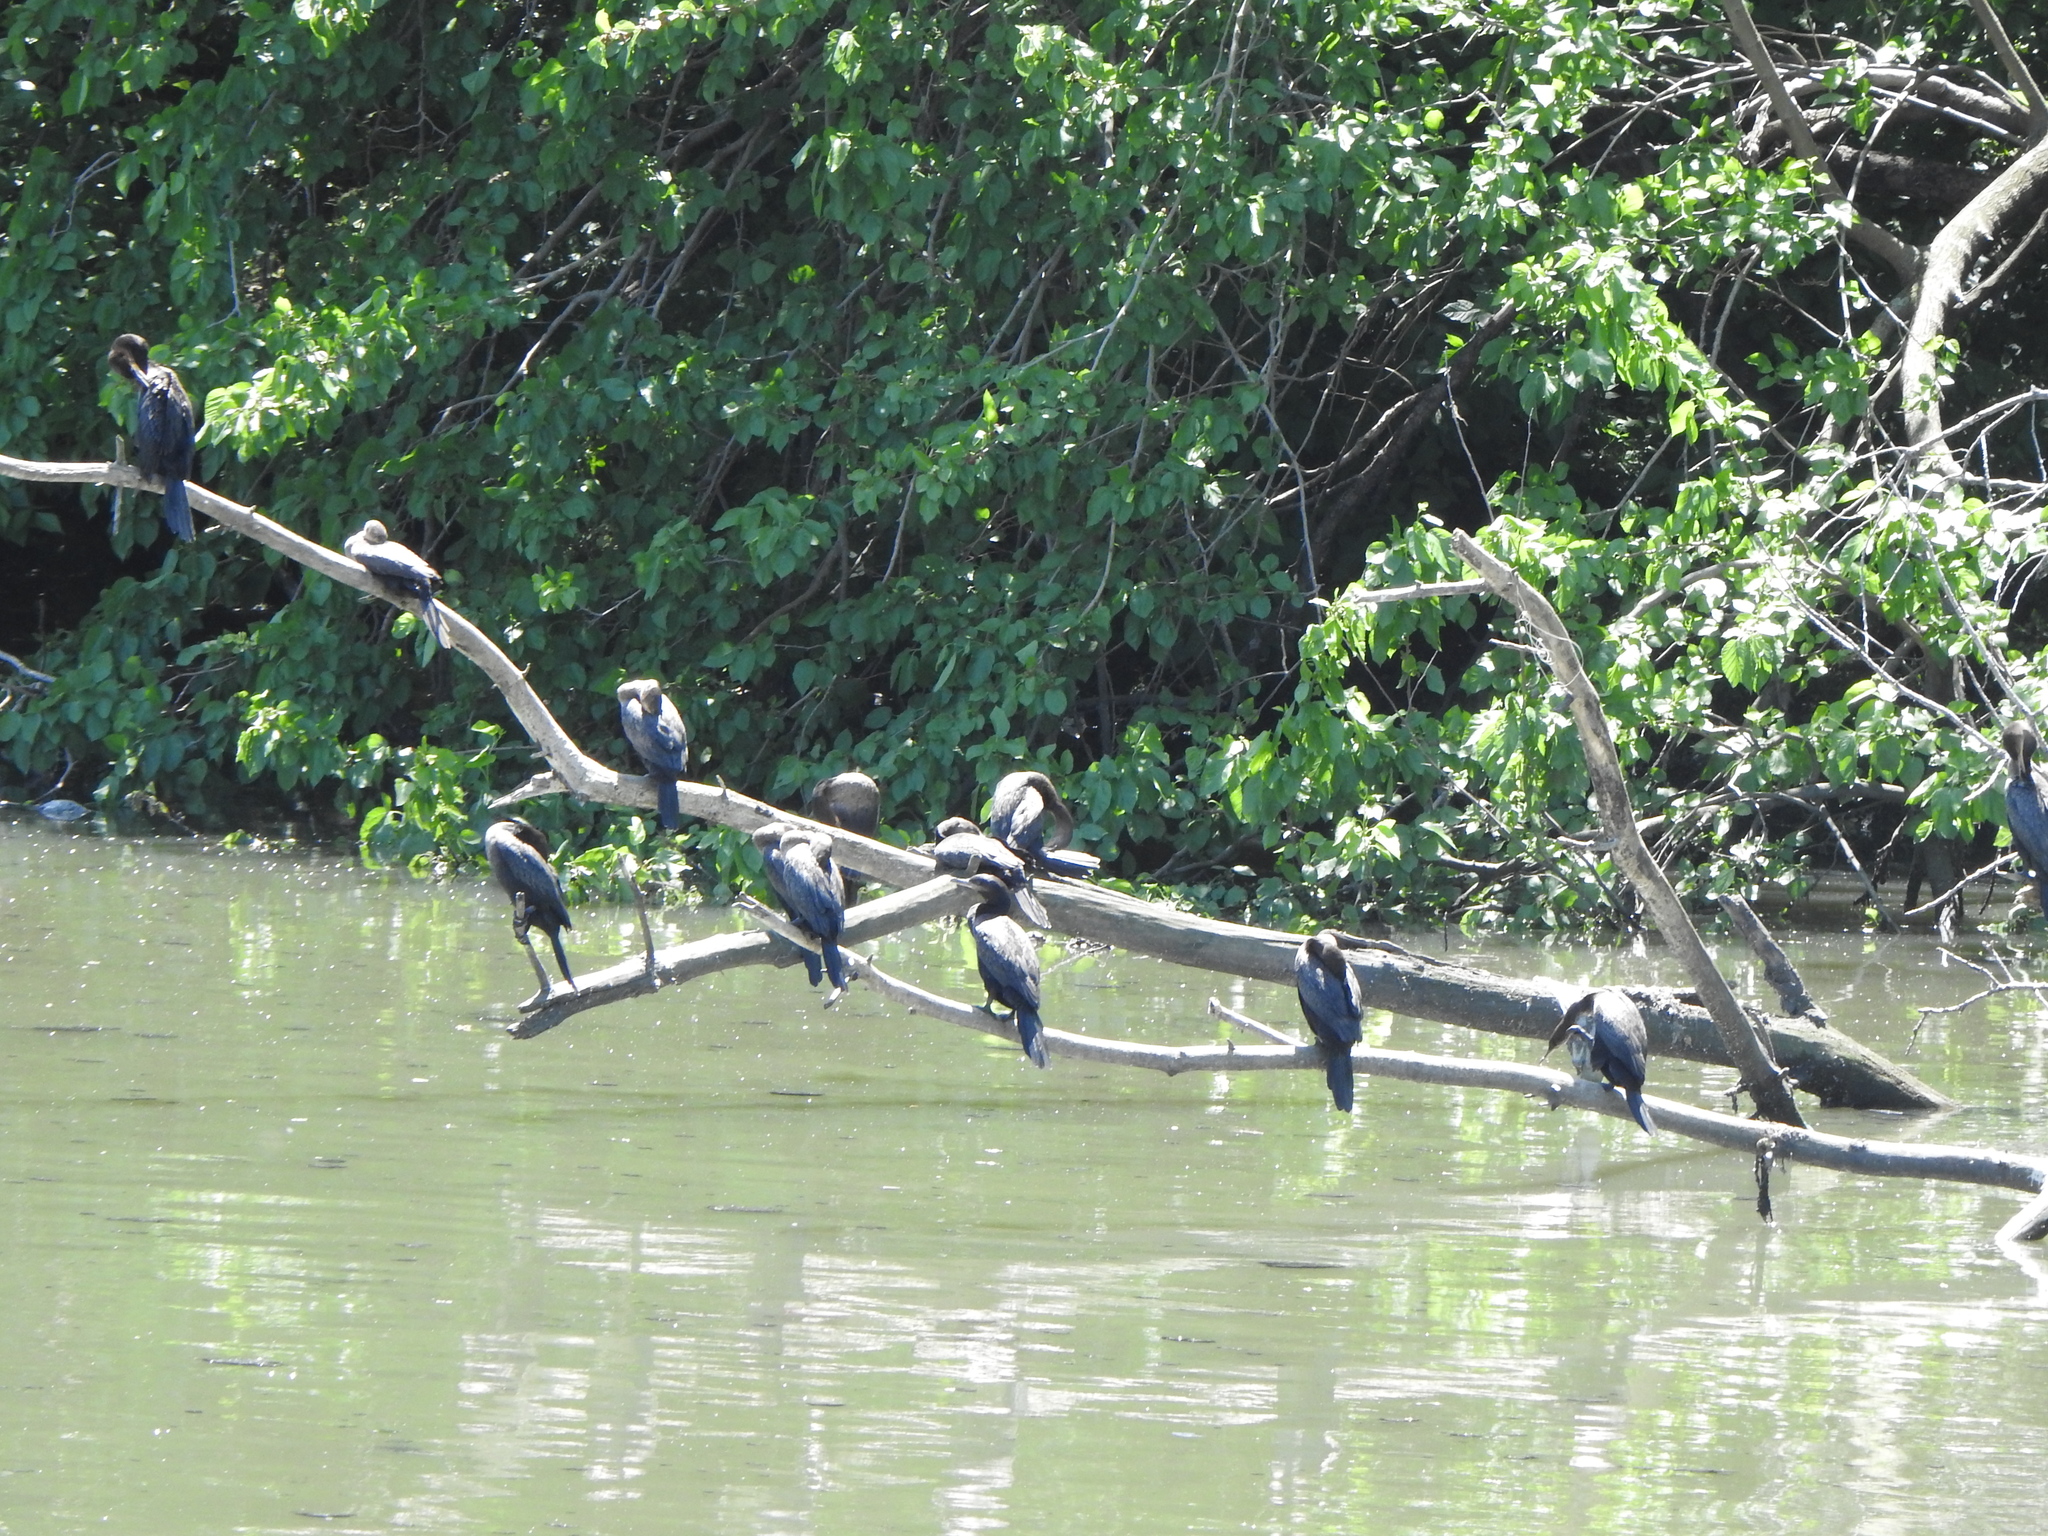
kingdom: Animalia
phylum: Chordata
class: Aves
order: Suliformes
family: Phalacrocoracidae
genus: Phalacrocorax
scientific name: Phalacrocorax brasilianus
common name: Neotropic cormorant
